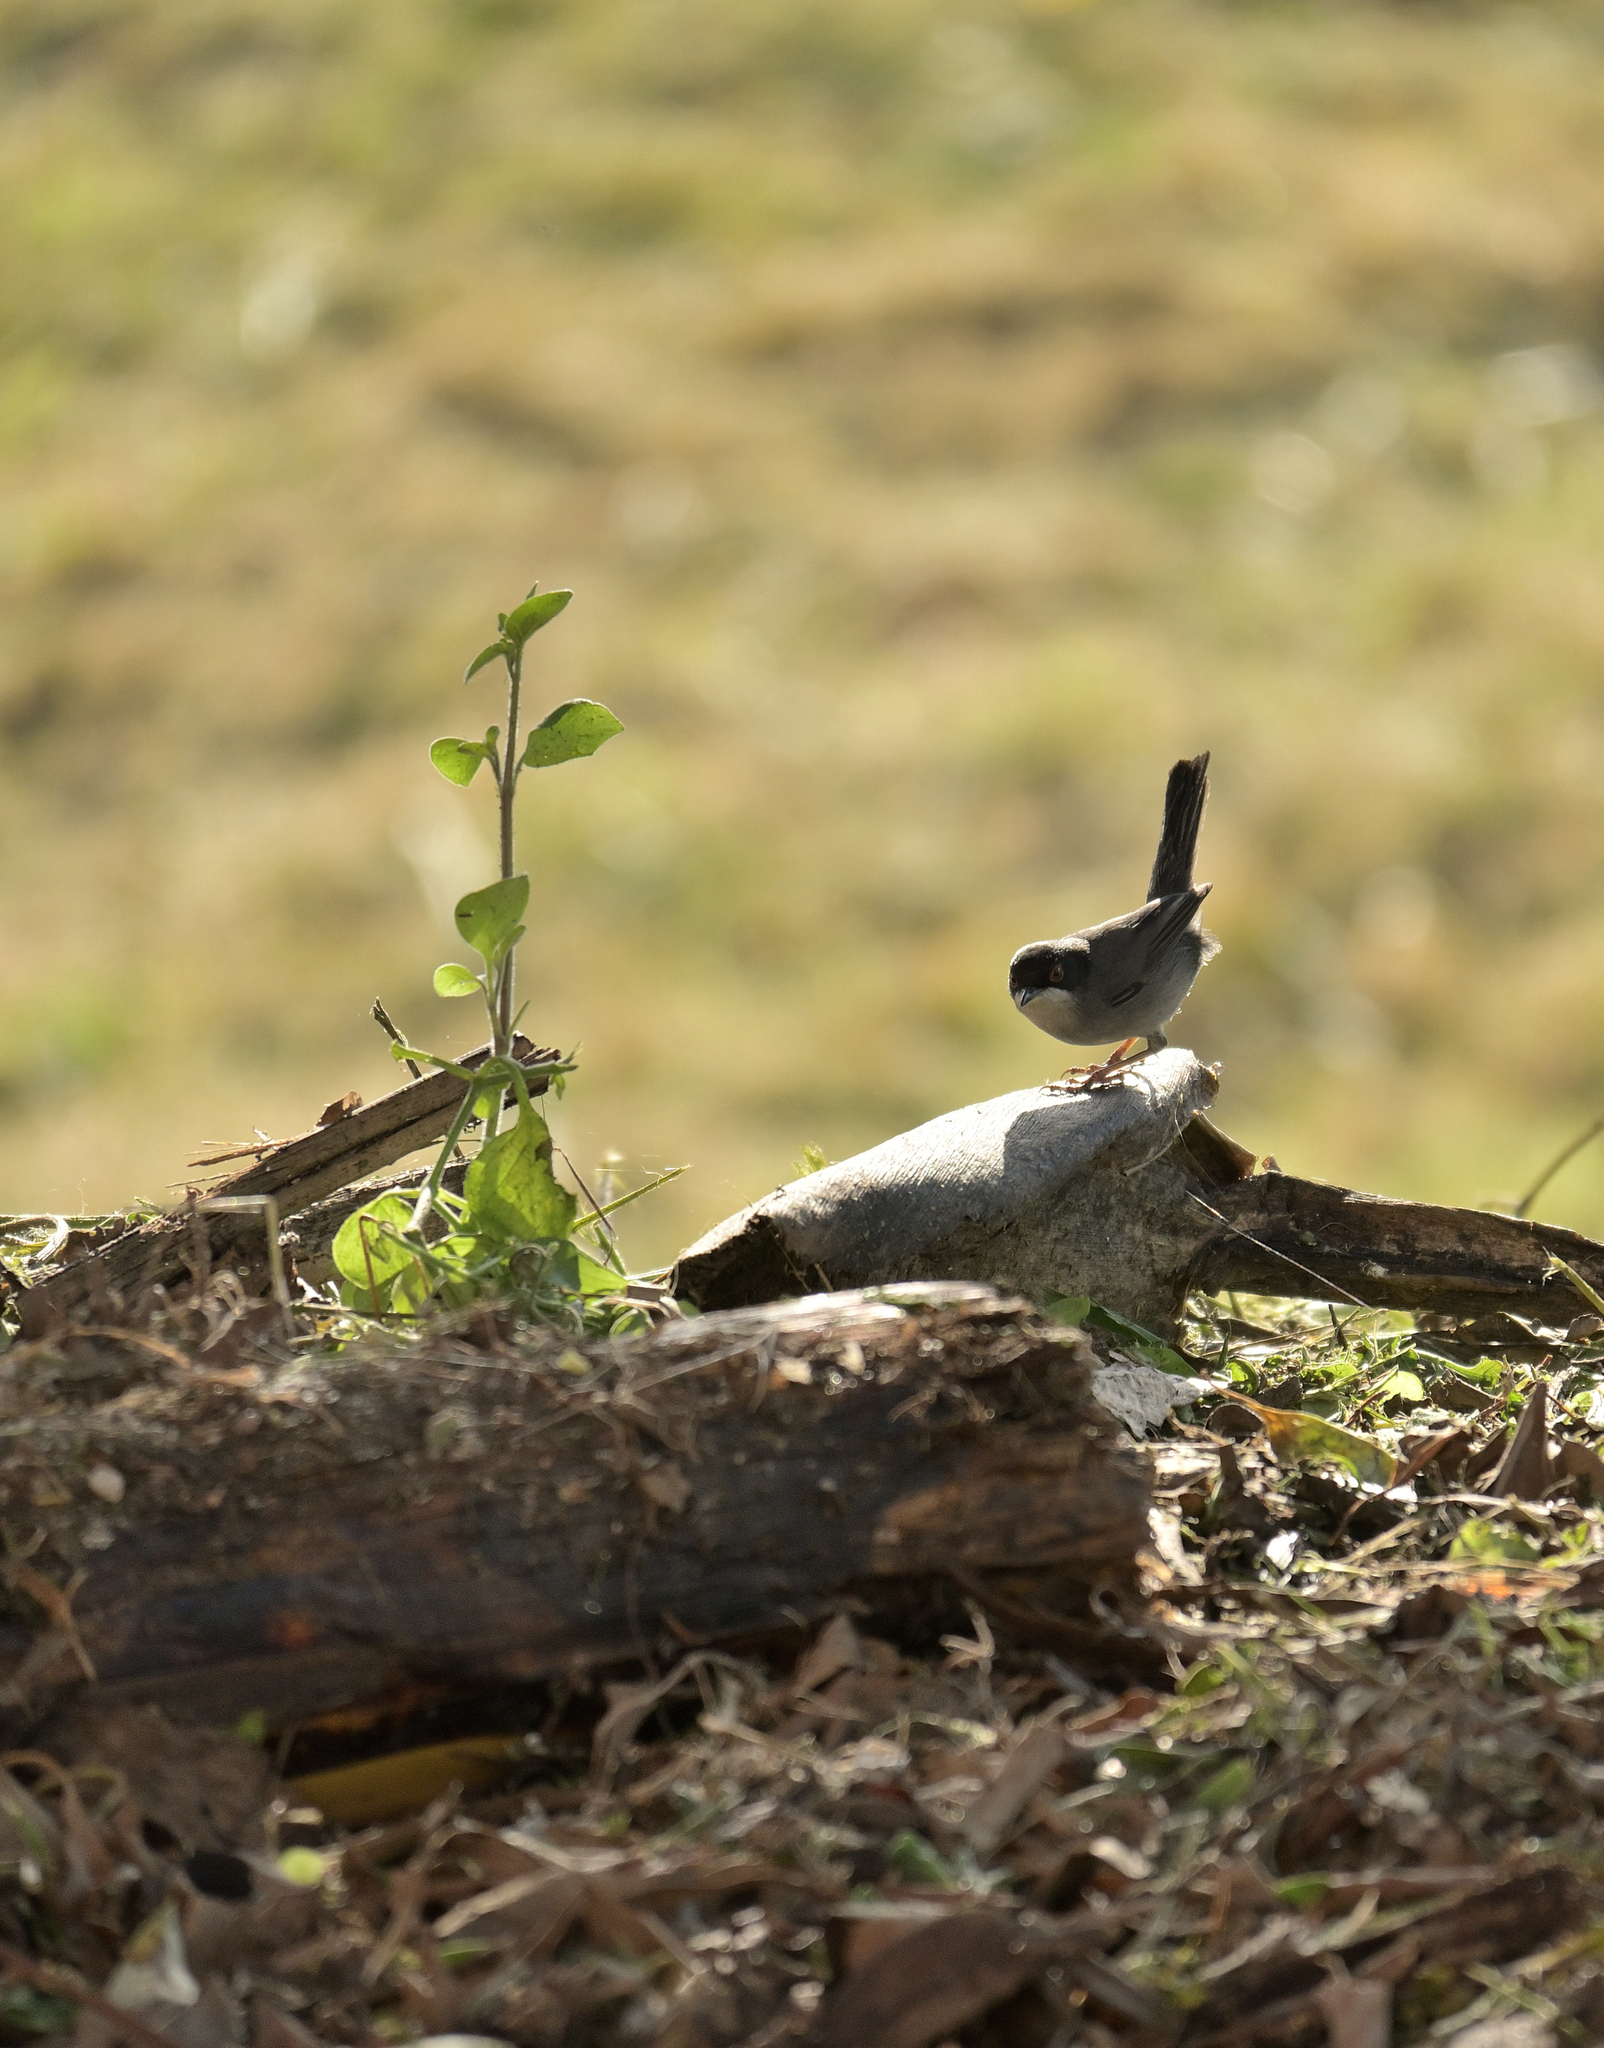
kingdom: Animalia
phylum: Chordata
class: Aves
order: Passeriformes
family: Sylviidae
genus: Curruca
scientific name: Curruca melanocephala
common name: Sardinian warbler
